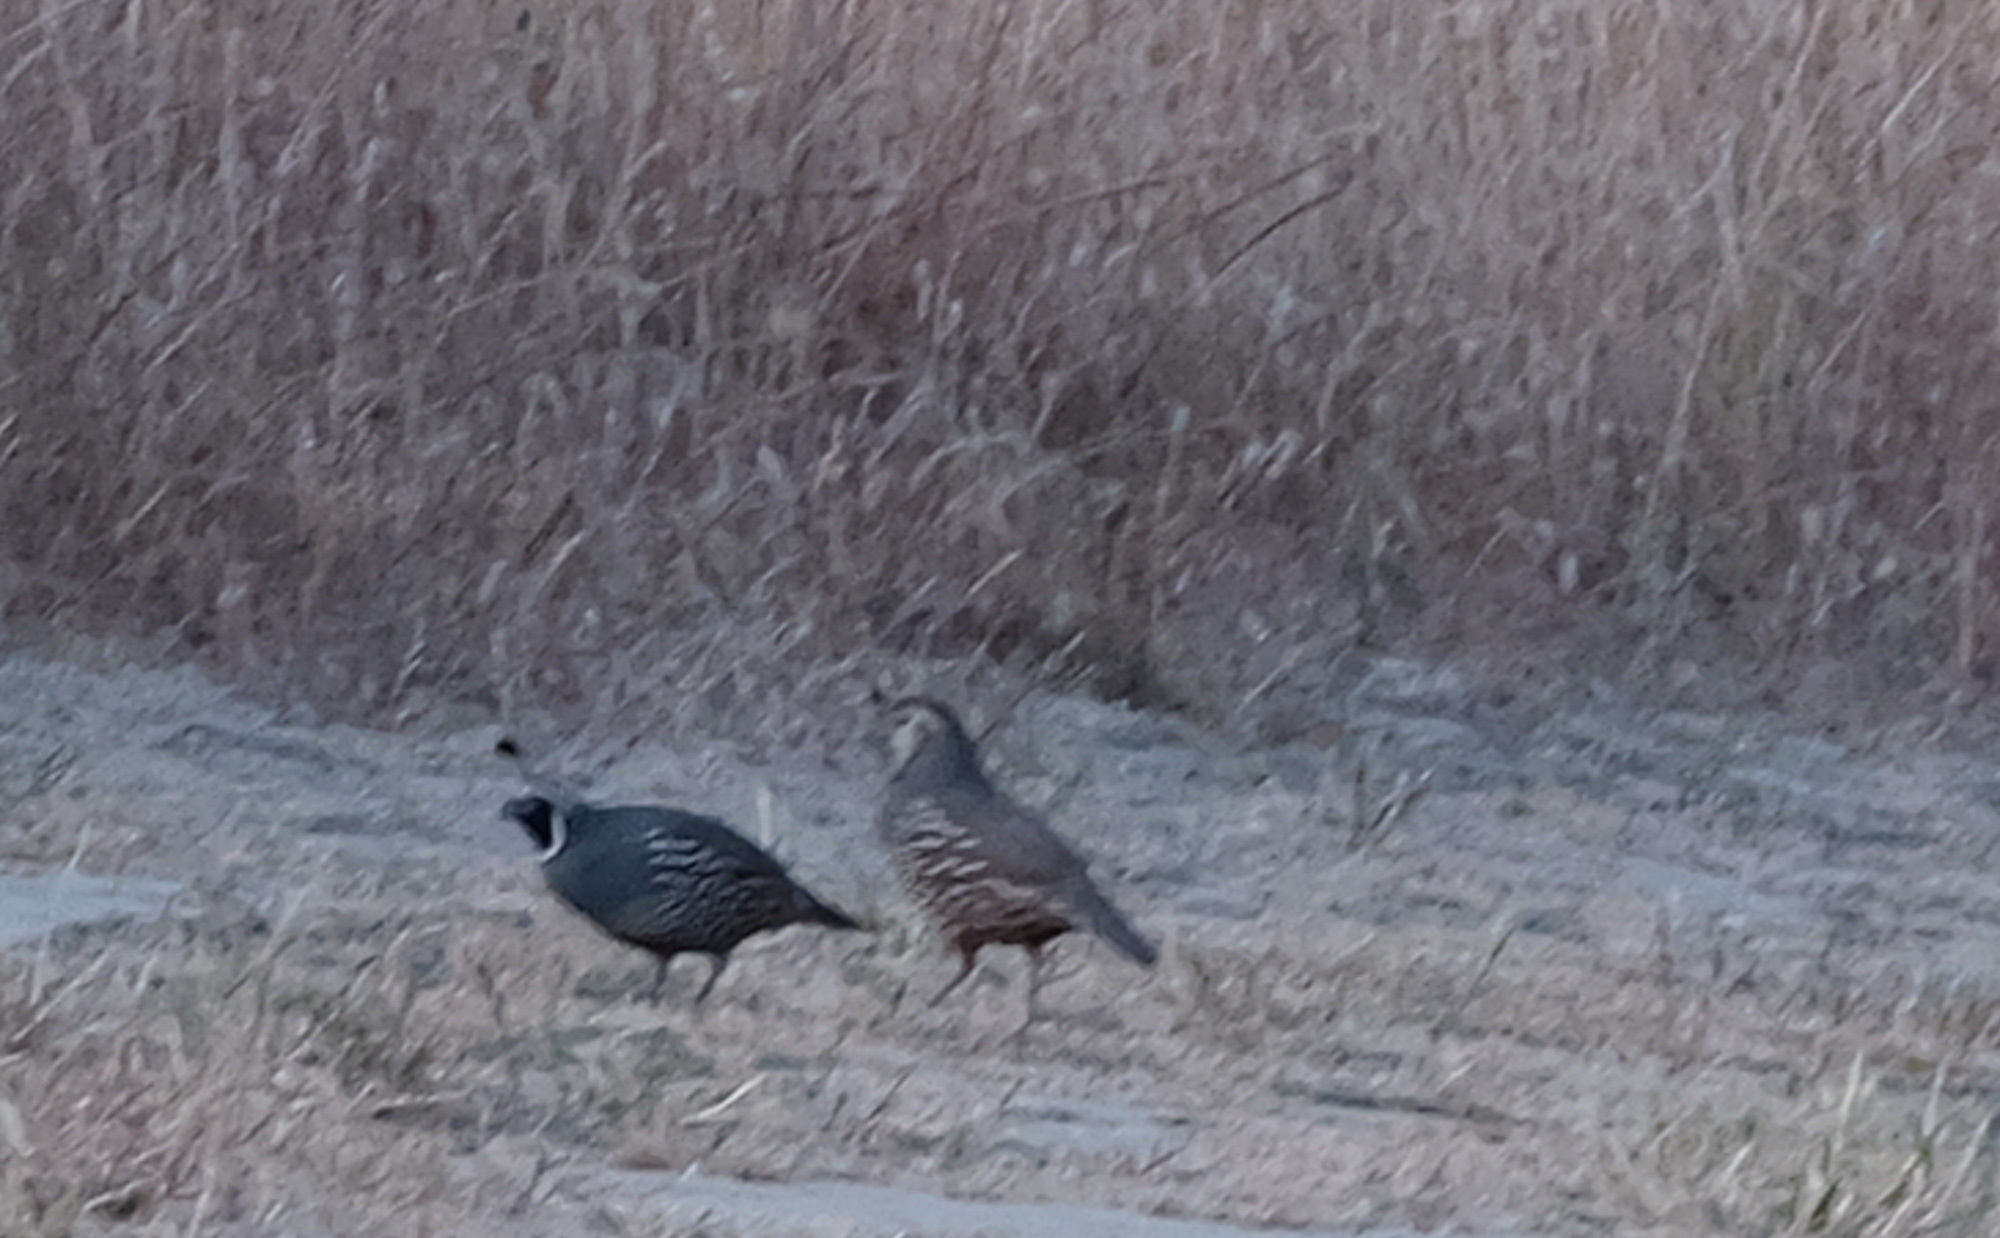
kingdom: Animalia
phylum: Chordata
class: Aves
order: Galliformes
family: Odontophoridae
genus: Callipepla
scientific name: Callipepla californica
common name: California quail
